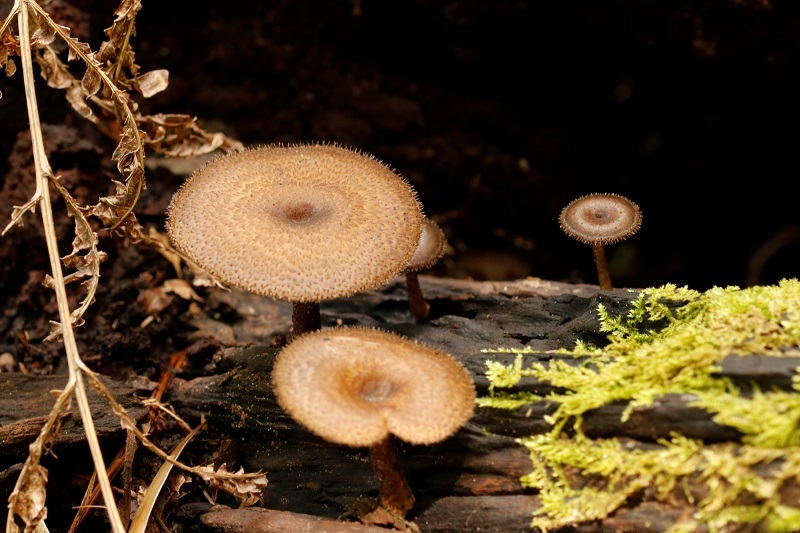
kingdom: Fungi
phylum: Basidiomycota
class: Agaricomycetes
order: Polyporales
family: Polyporaceae
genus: Lentinus
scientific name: Lentinus arcularius
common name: Spring polypore
